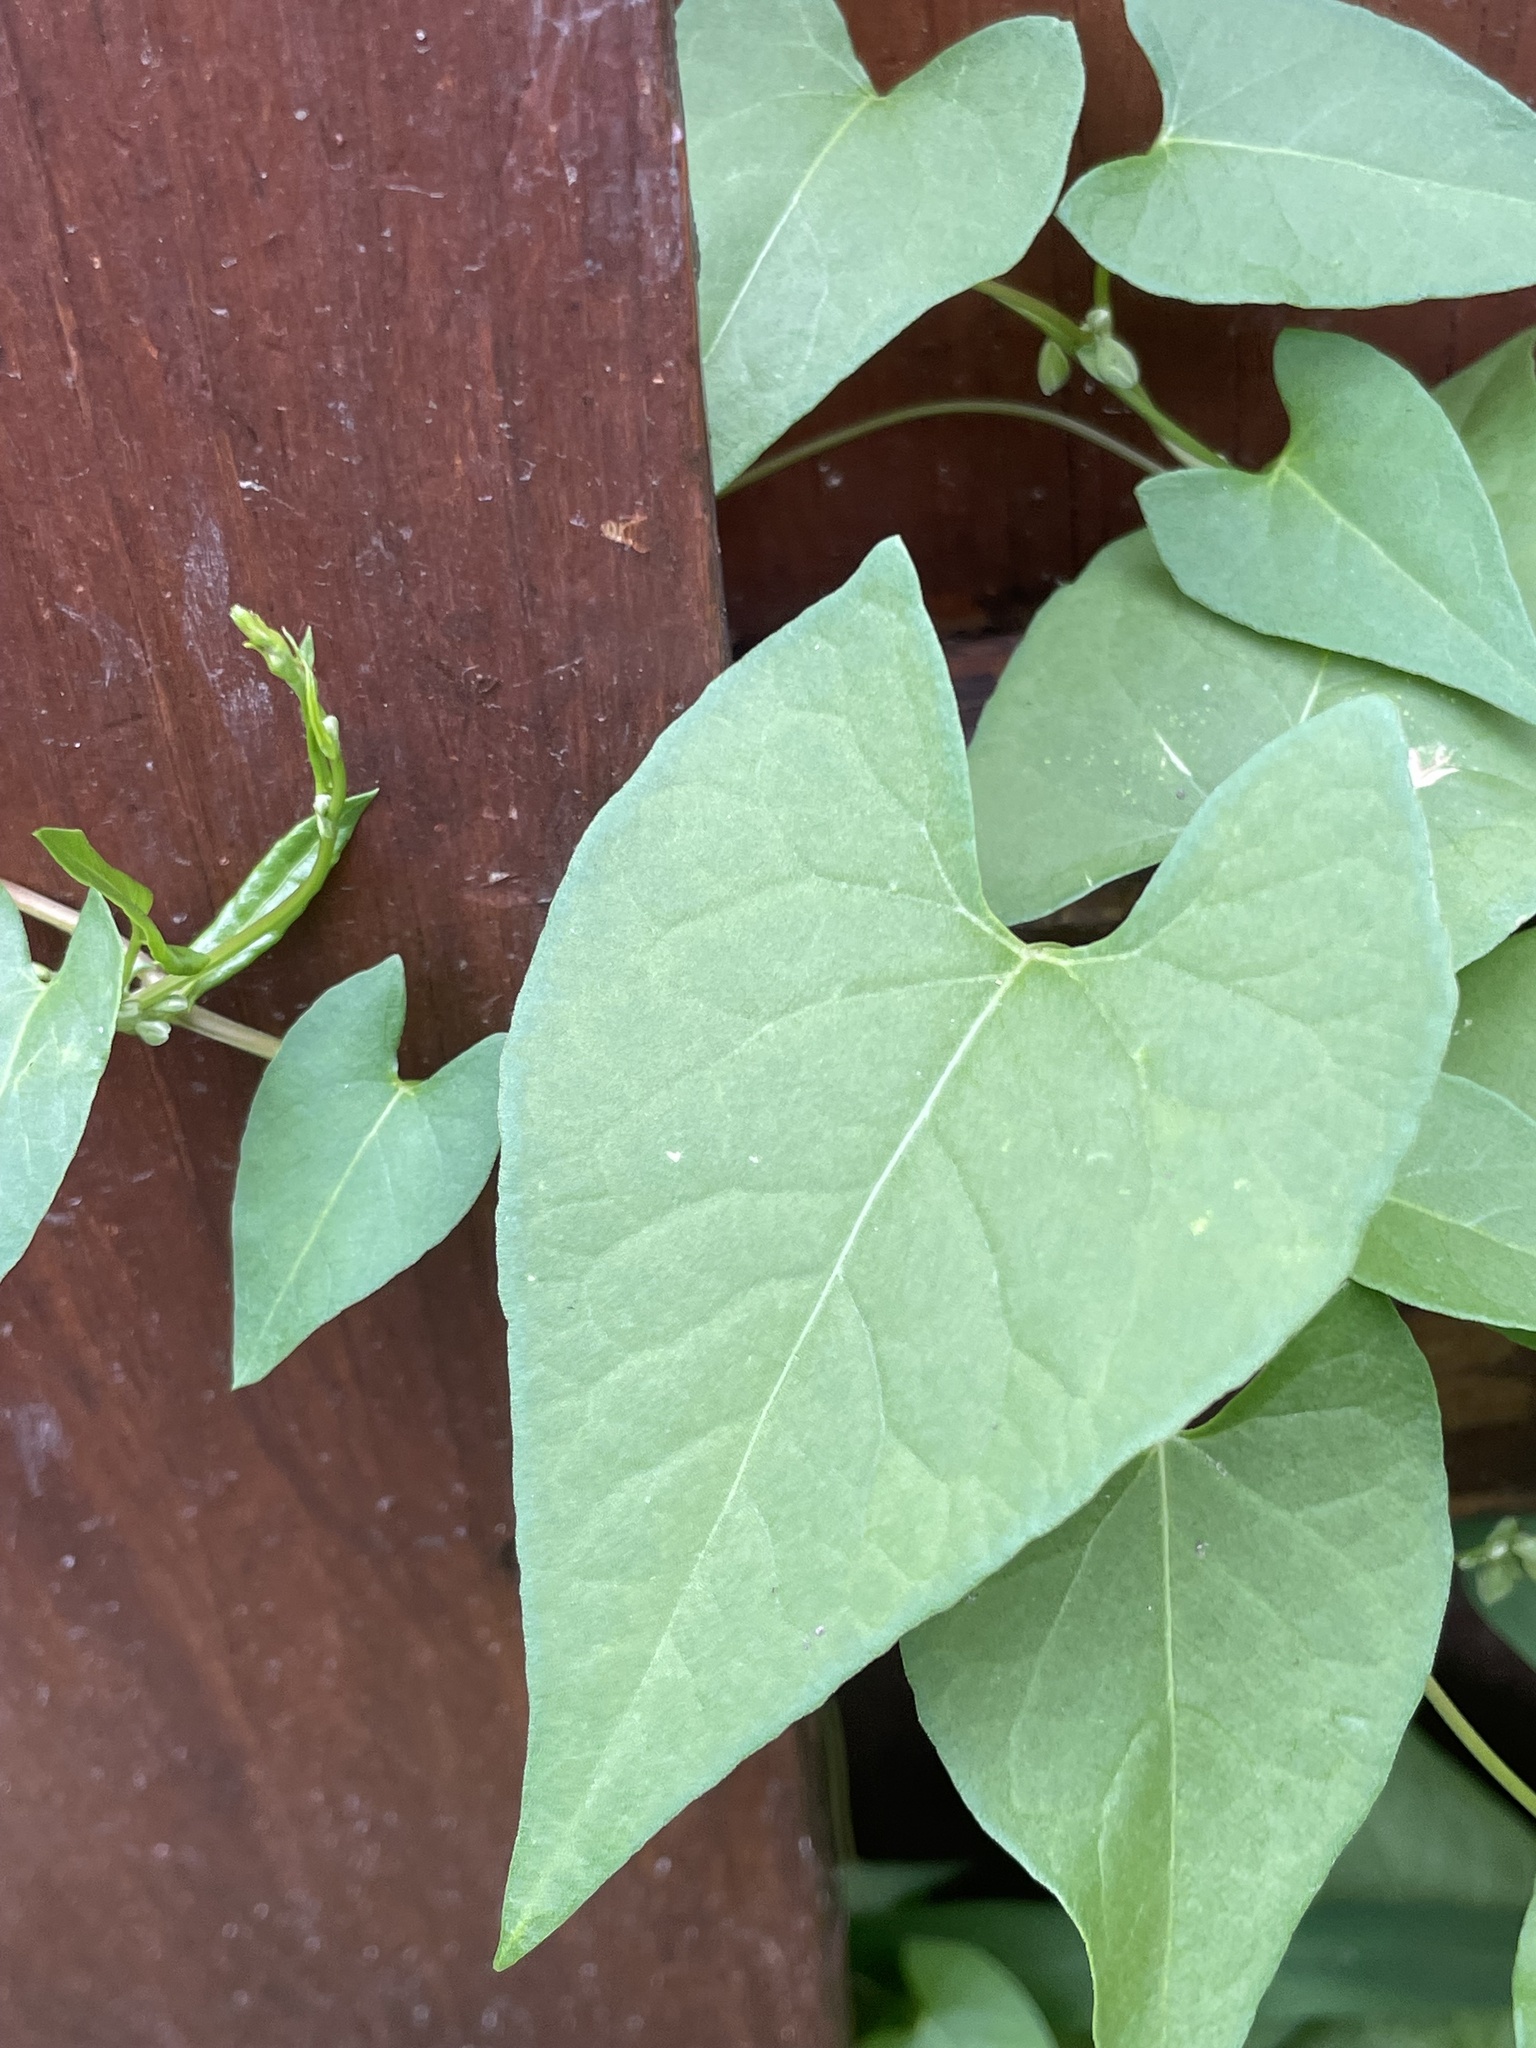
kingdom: Plantae
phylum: Tracheophyta
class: Magnoliopsida
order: Caryophyllales
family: Polygonaceae
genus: Fallopia
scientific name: Fallopia convolvulus
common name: Black bindweed
